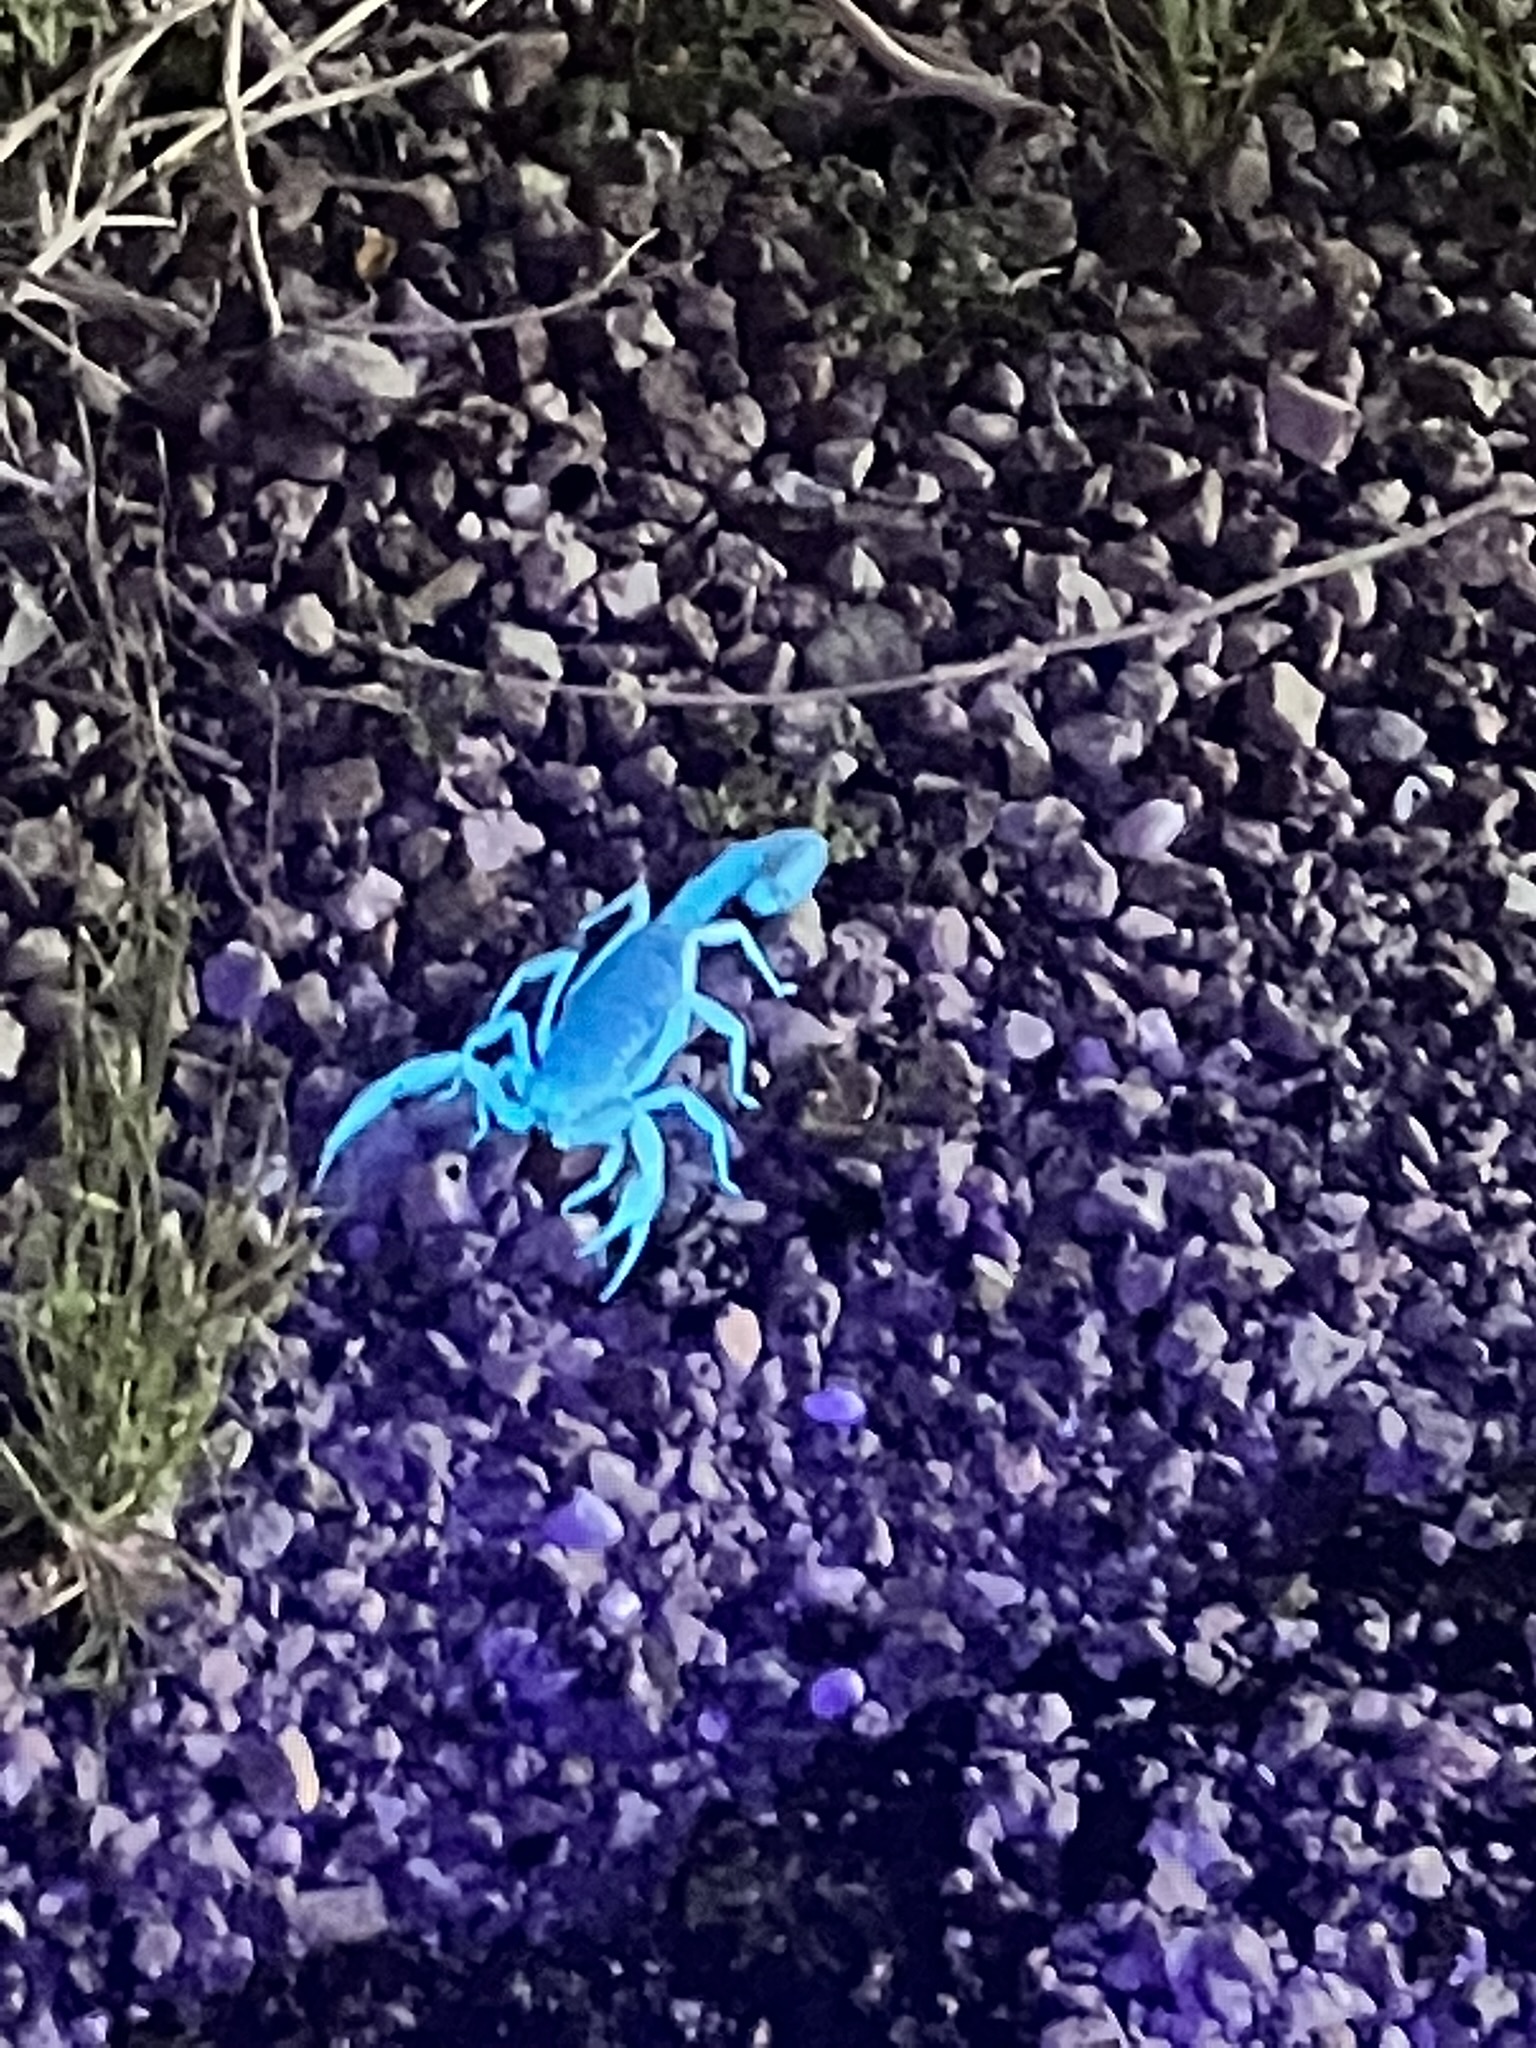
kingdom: Animalia
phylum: Arthropoda
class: Arachnida
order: Scorpiones
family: Hadruridae
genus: Hadrurus
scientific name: Hadrurus arizonensis
